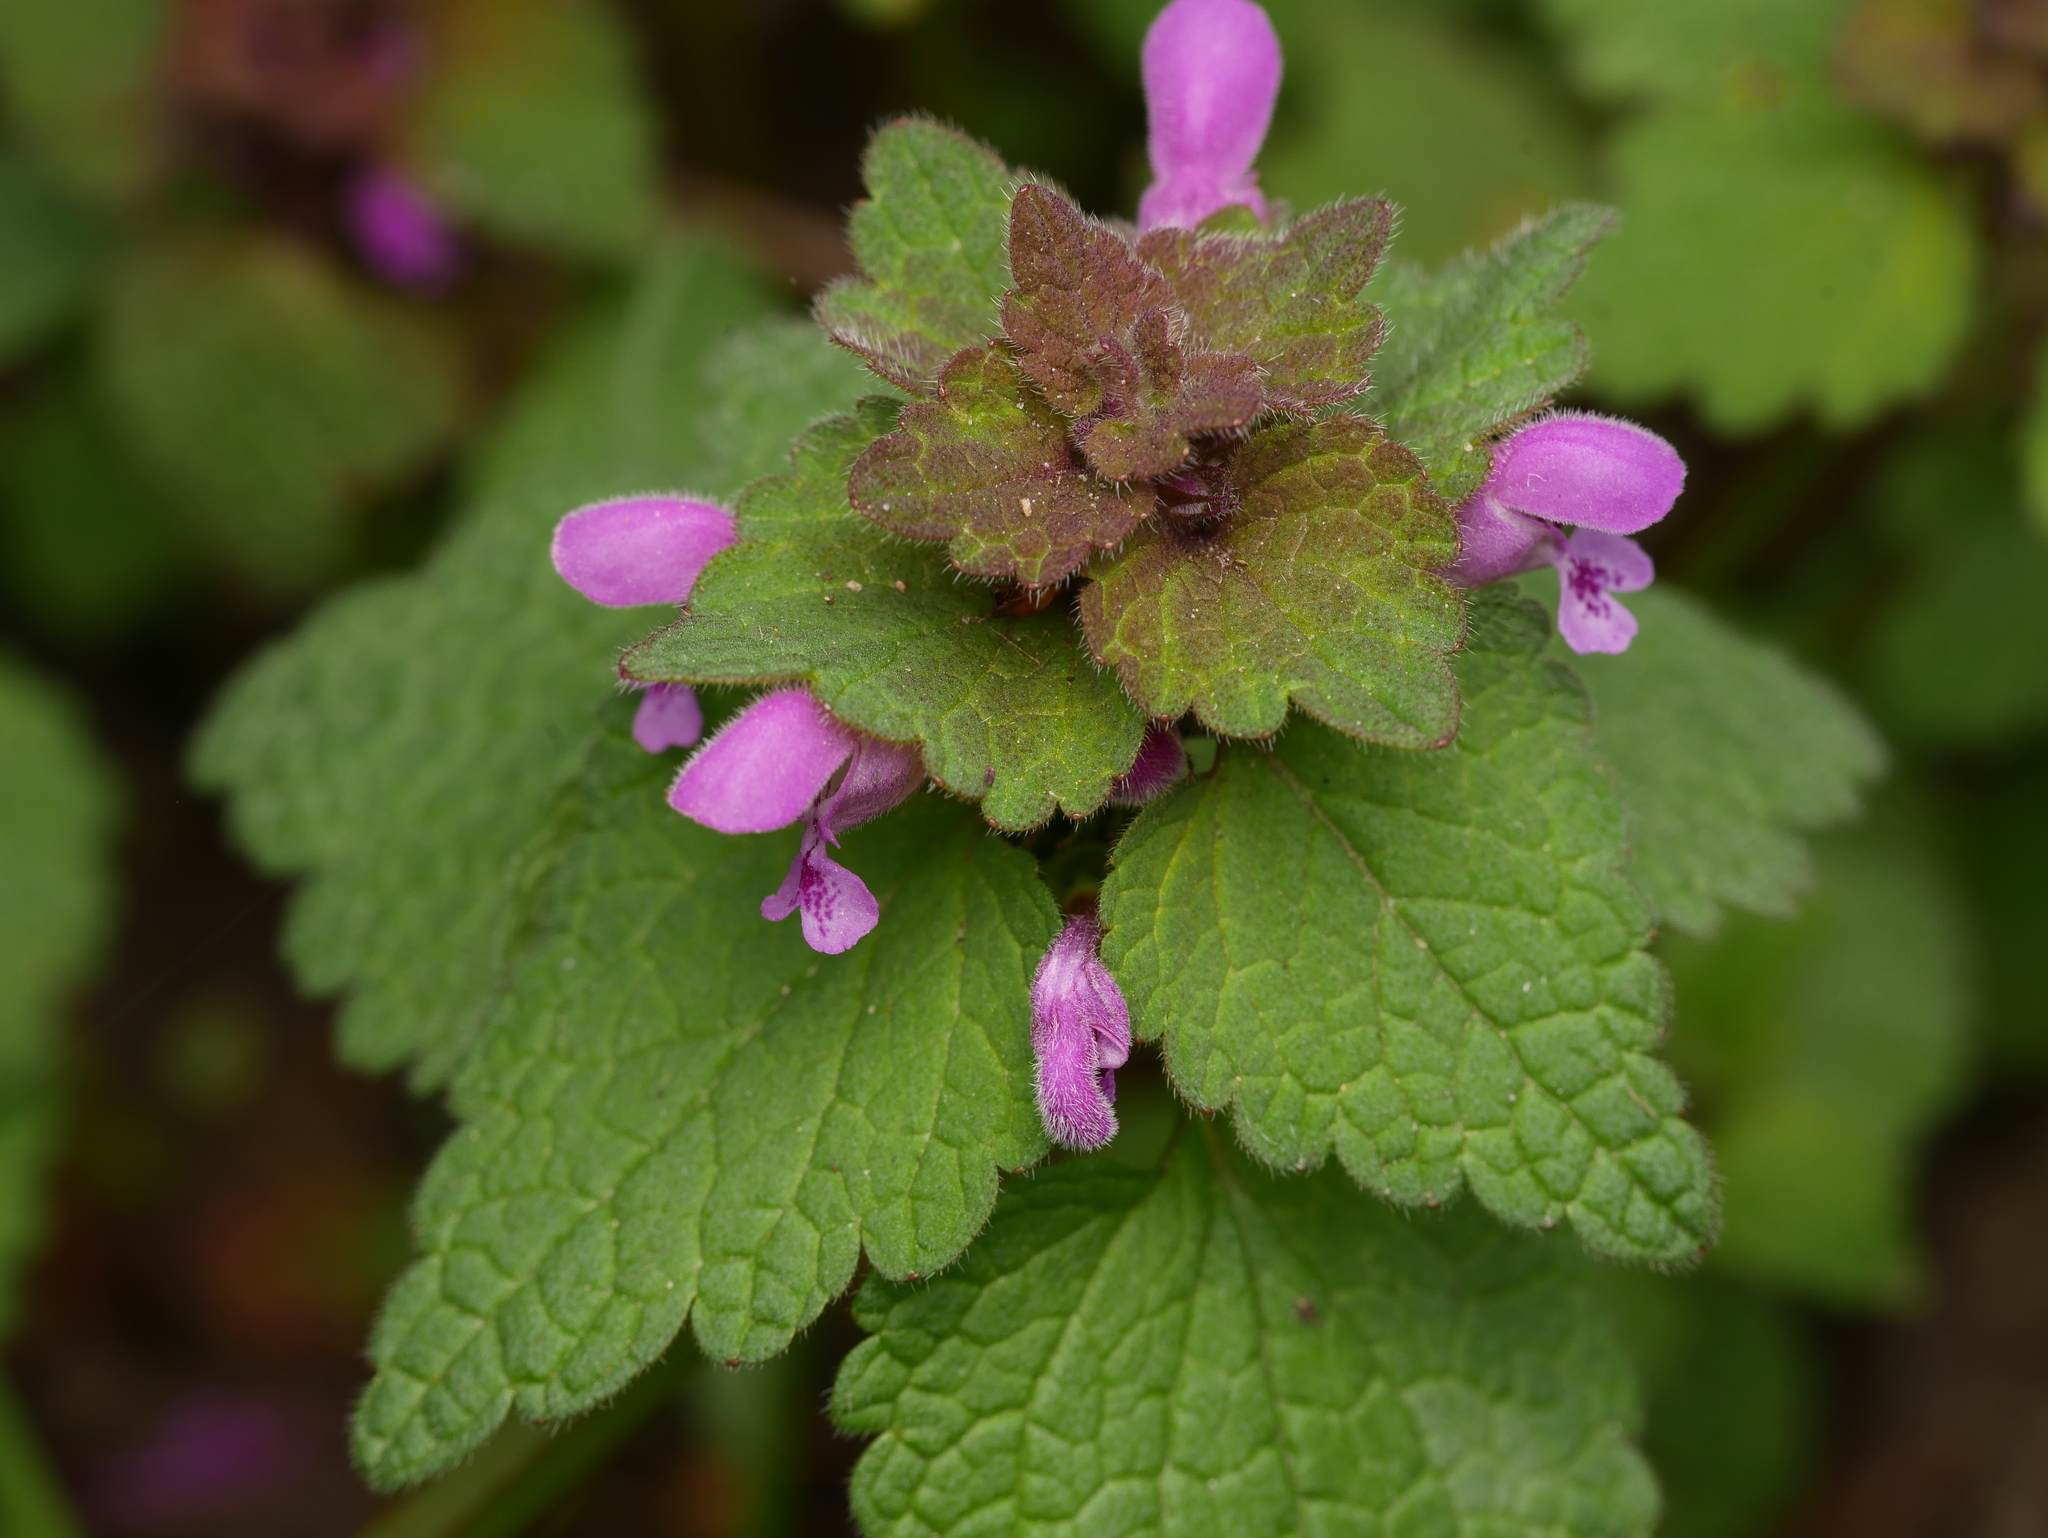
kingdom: Plantae
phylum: Tracheophyta
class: Magnoliopsida
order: Lamiales
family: Lamiaceae
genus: Lamium
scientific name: Lamium purpureum
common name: Red dead-nettle
